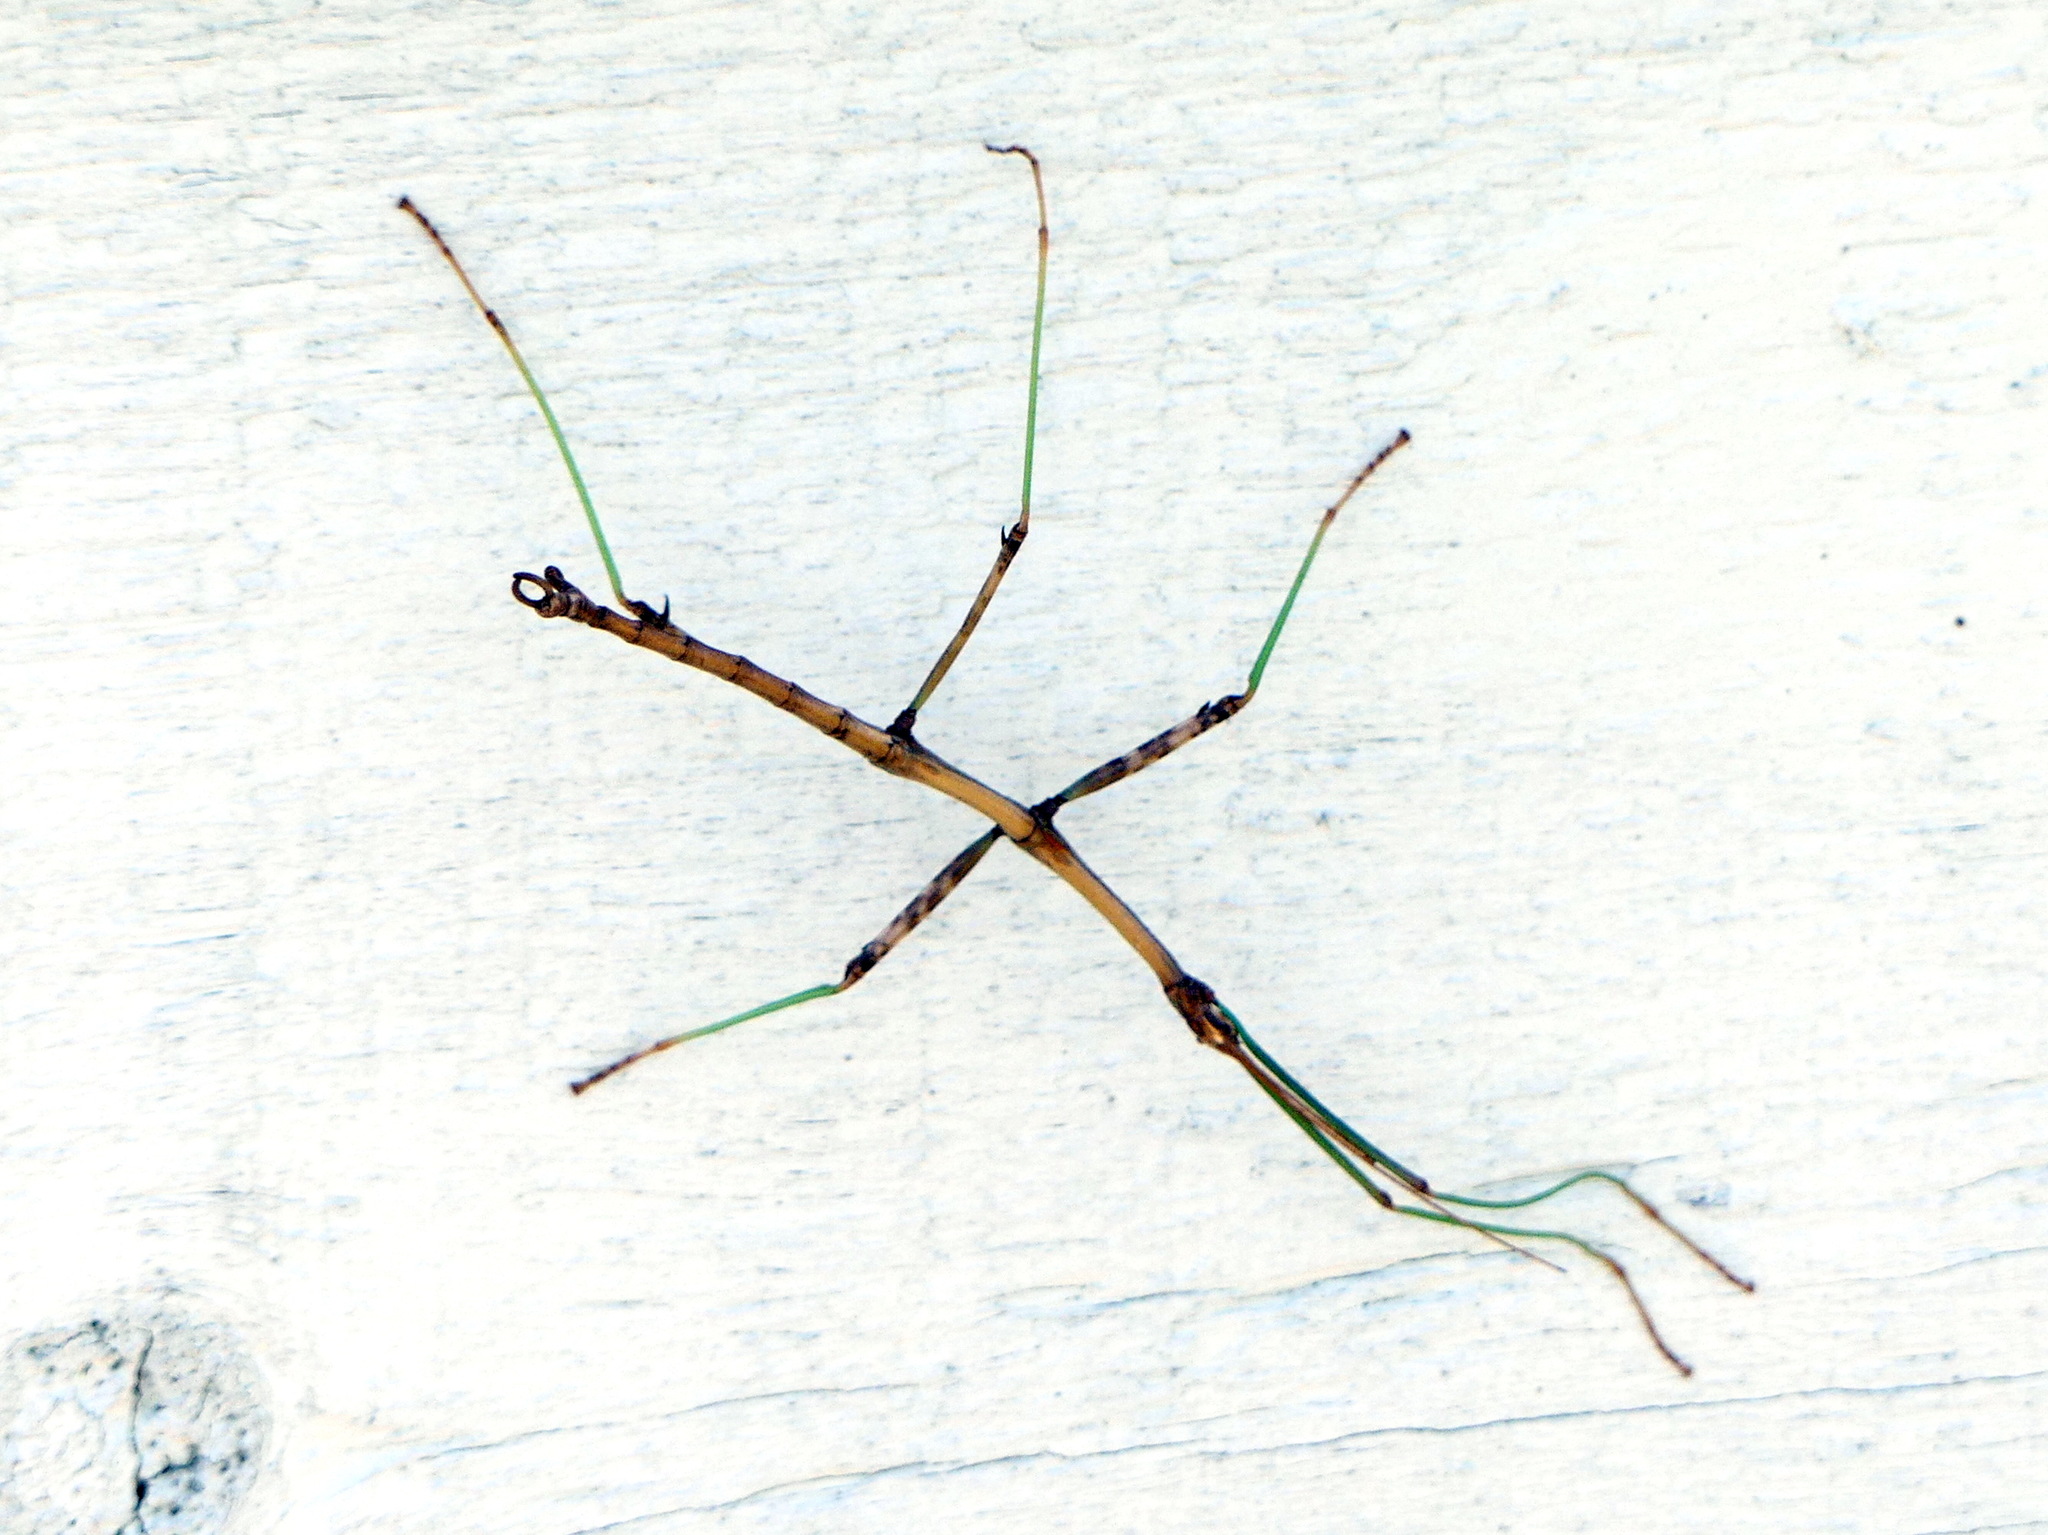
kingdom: Animalia
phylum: Arthropoda
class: Insecta
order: Phasmida
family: Diapheromeridae
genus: Diapheromera
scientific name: Diapheromera femorata
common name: Common american walkingstick
